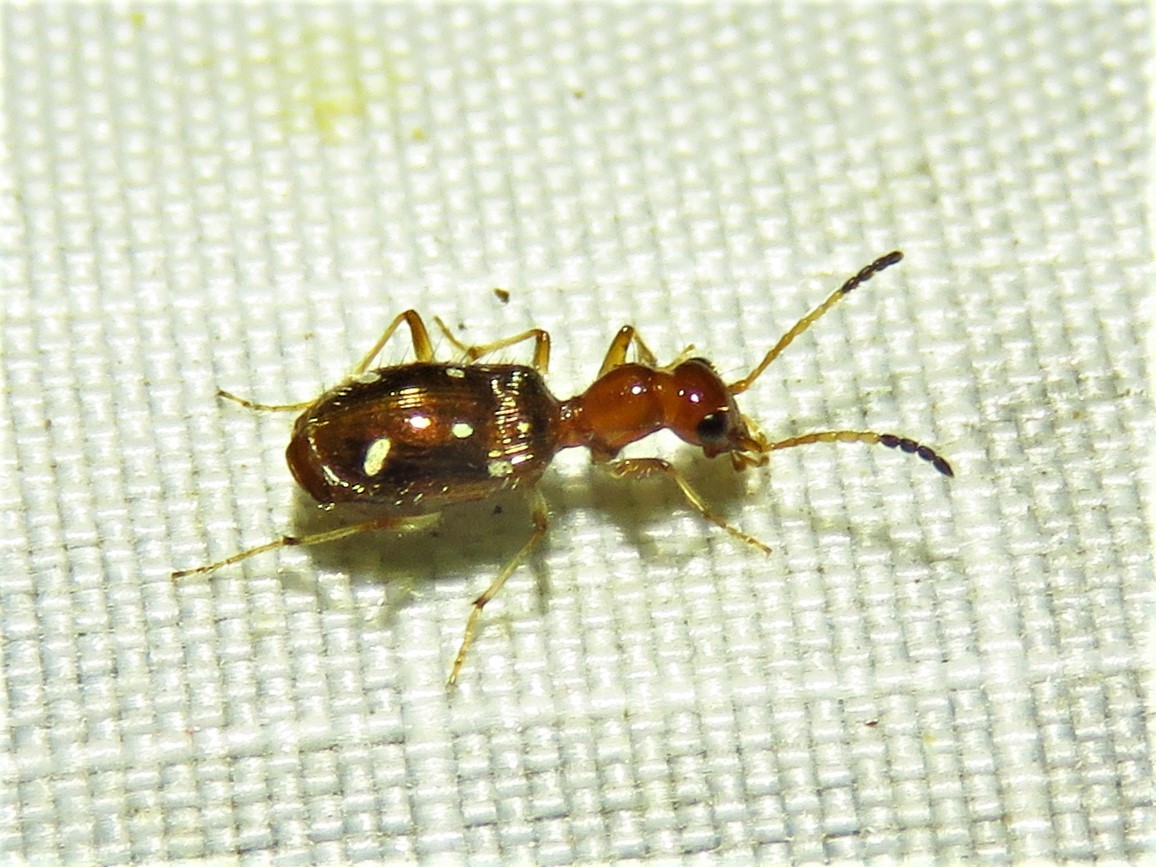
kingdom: Animalia
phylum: Arthropoda
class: Insecta
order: Coleoptera
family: Carabidae
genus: Ega
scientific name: Ega sallei
